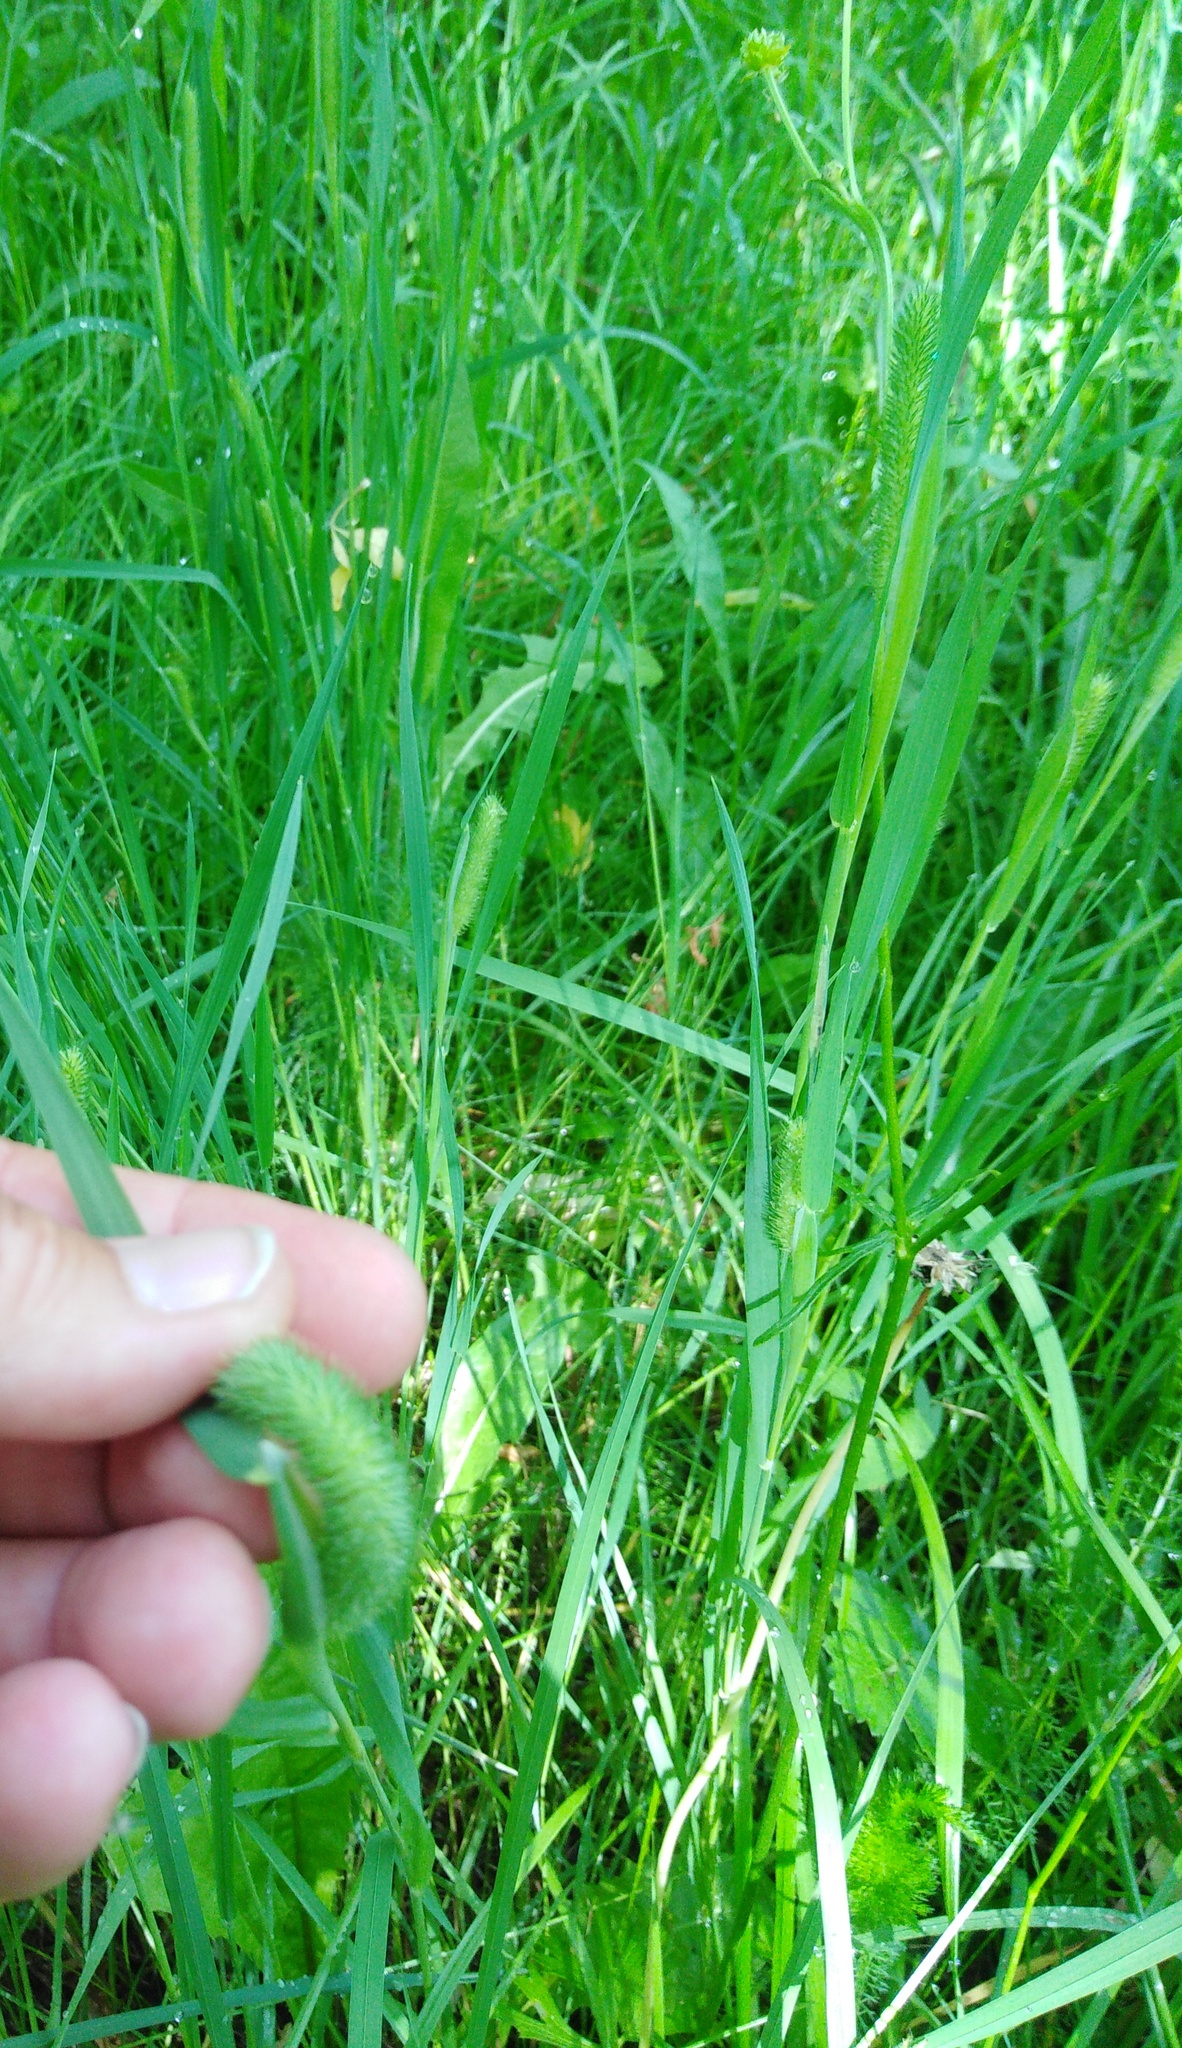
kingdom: Plantae
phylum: Tracheophyta
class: Liliopsida
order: Poales
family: Poaceae
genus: Phleum
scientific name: Phleum pratense
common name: Timothy grass
